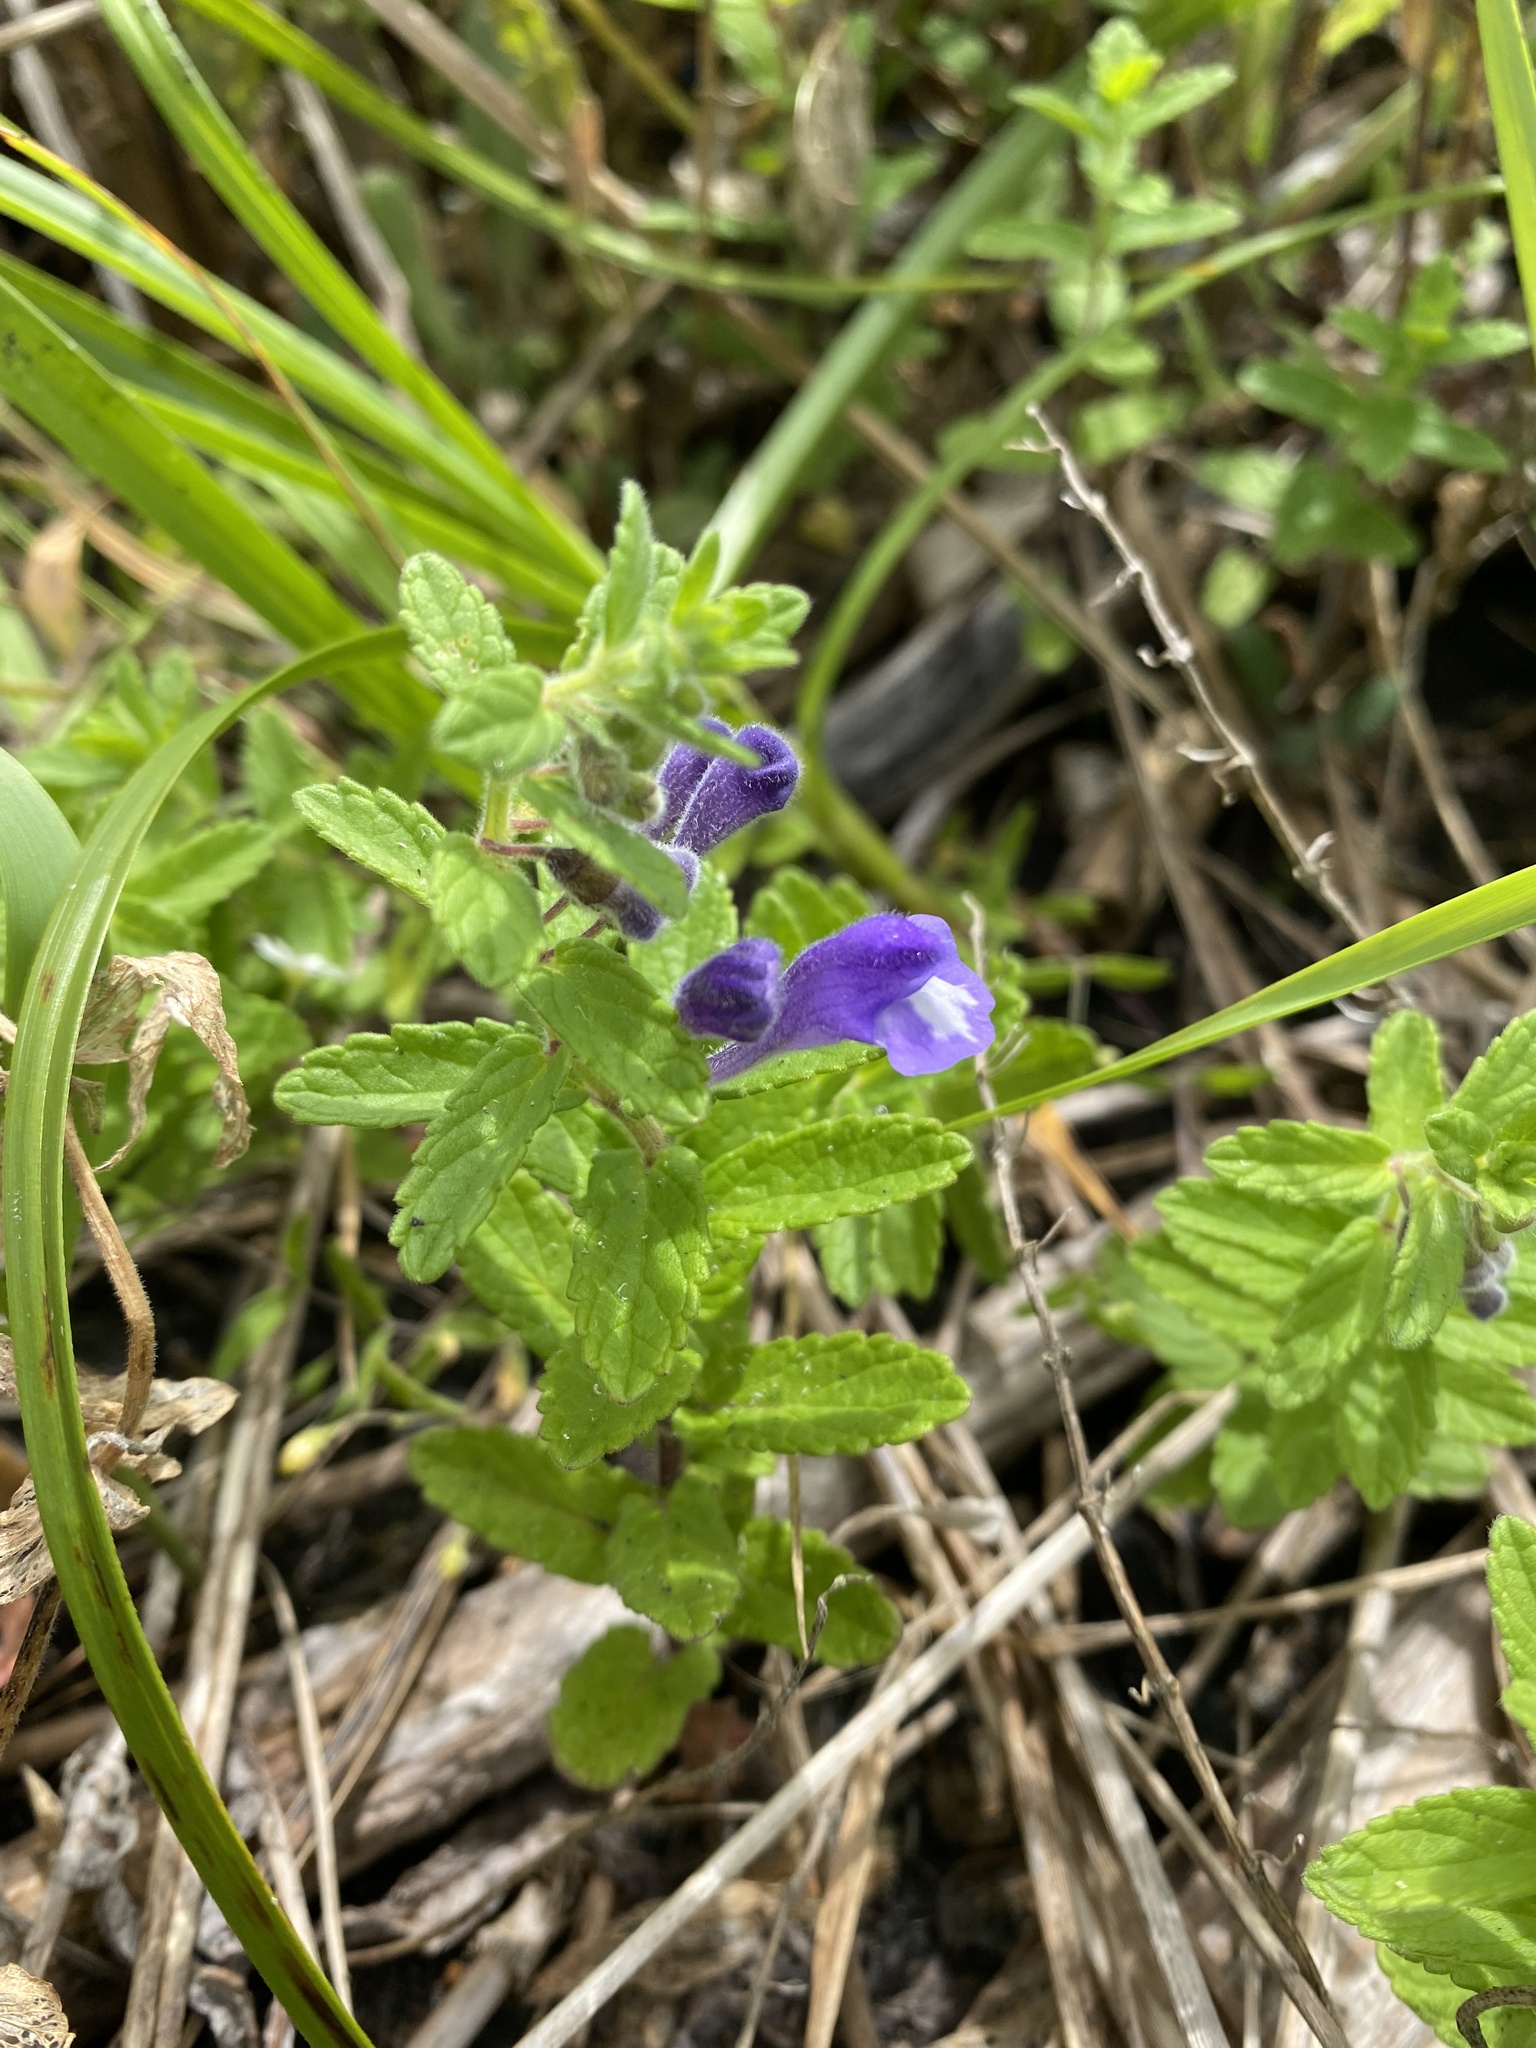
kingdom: Plantae
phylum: Tracheophyta
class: Magnoliopsida
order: Lamiales
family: Lamiaceae
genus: Scutellaria
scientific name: Scutellaria strigillosa
